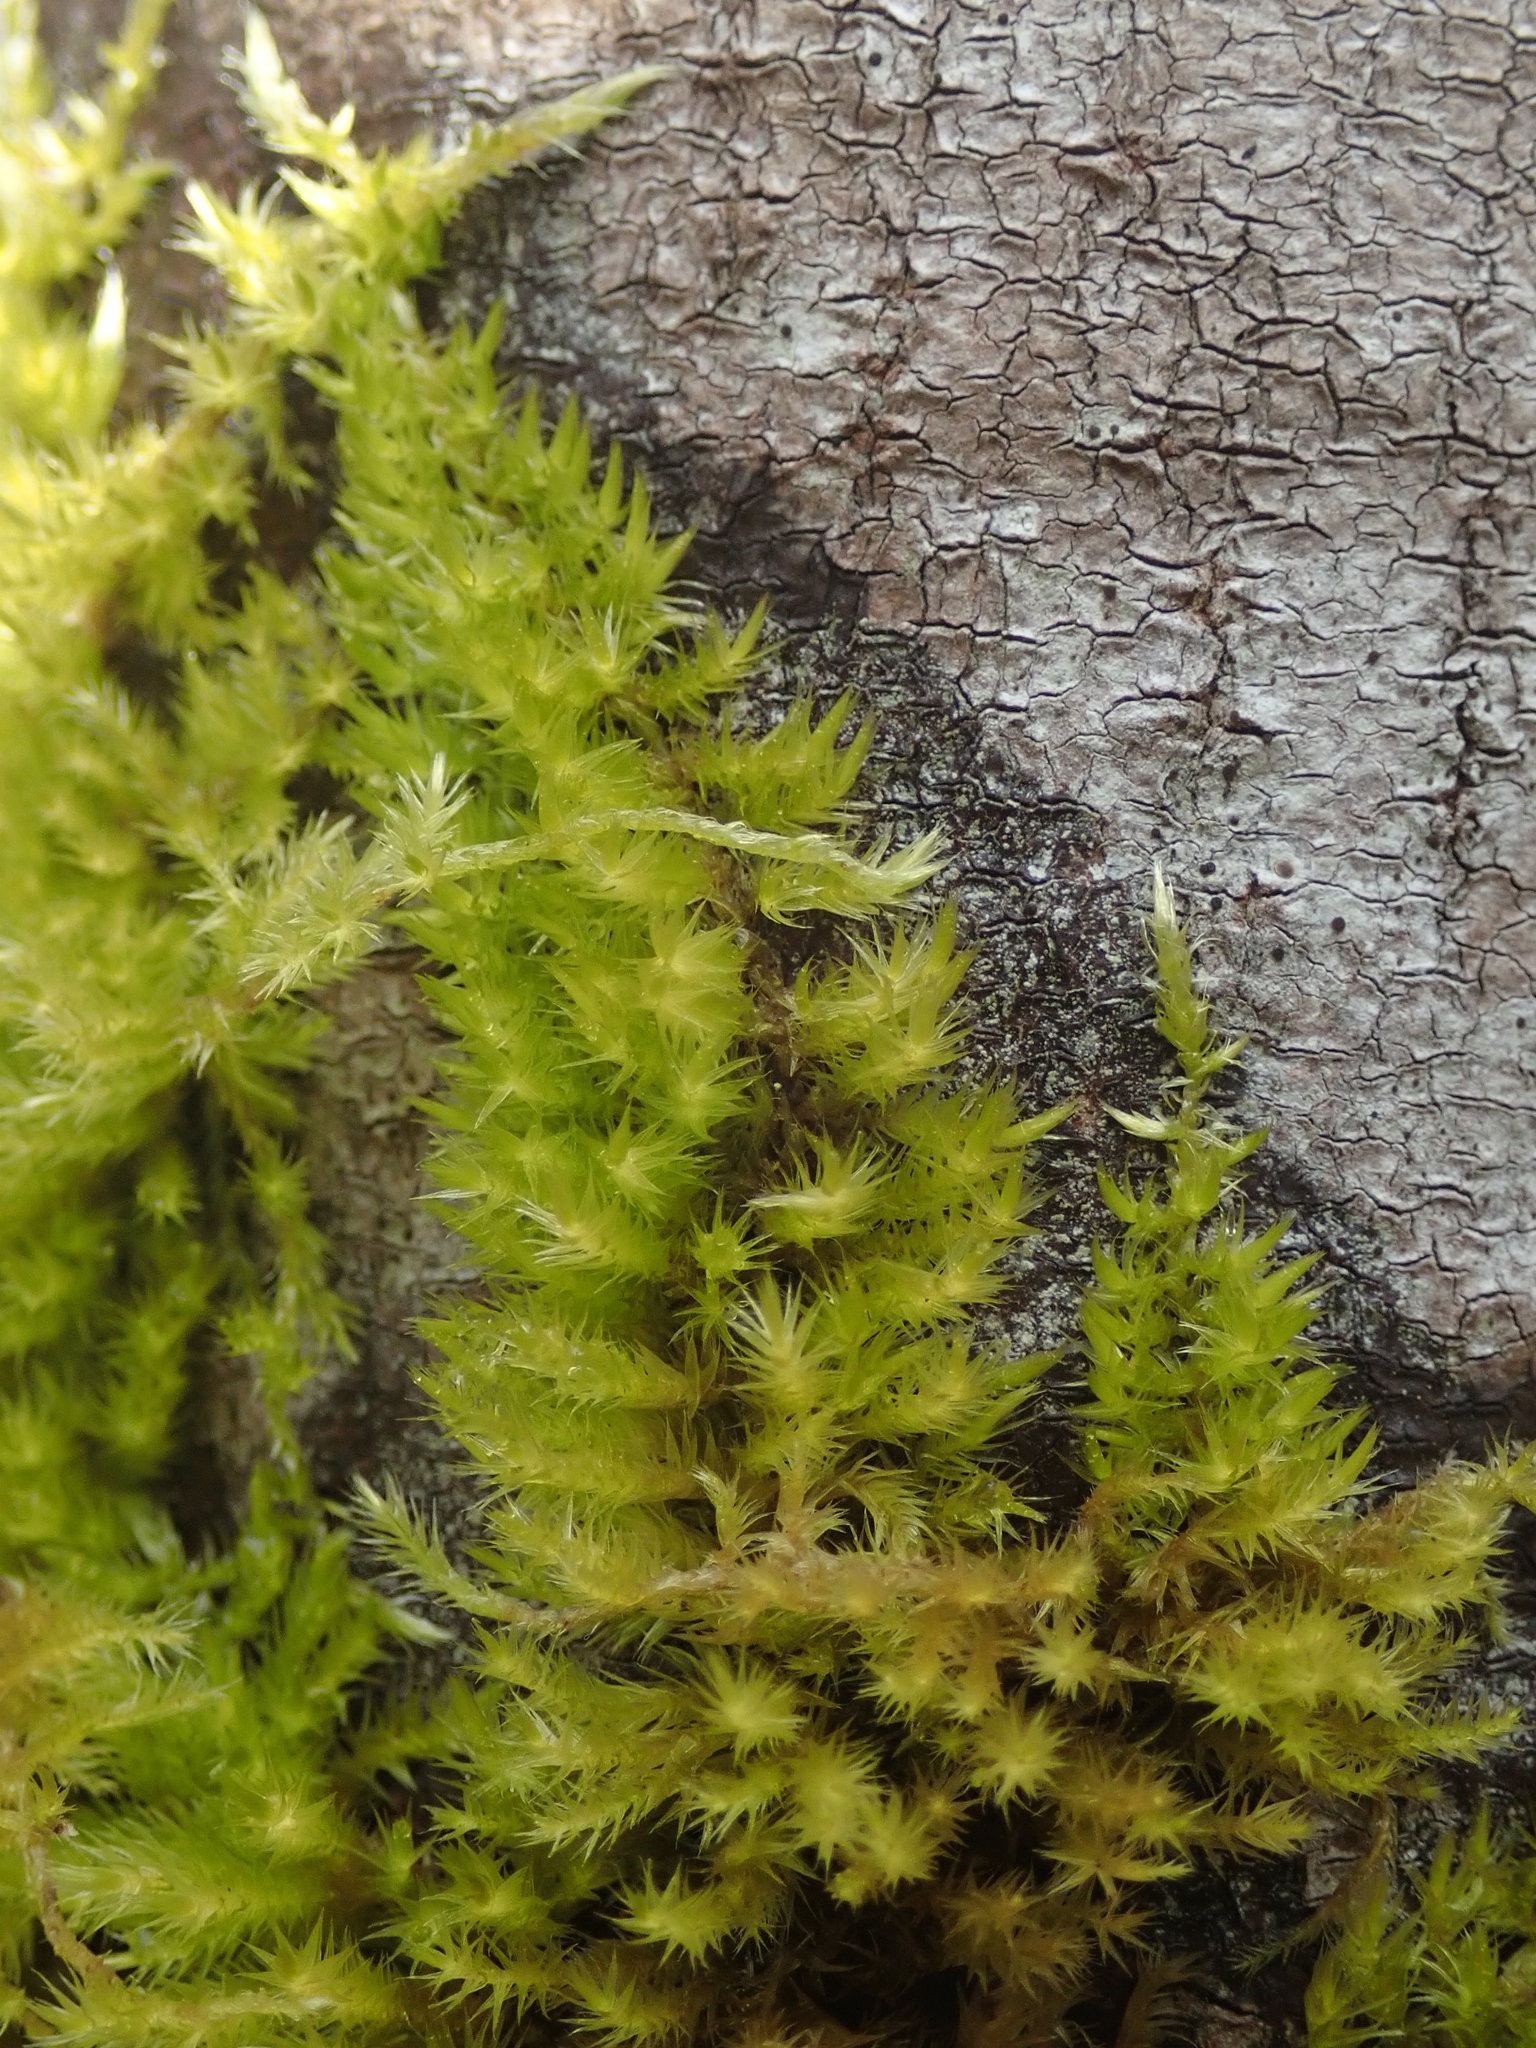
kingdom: Plantae
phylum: Bryophyta
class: Bryopsida
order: Hypnales
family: Brachytheciaceae
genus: Homalothecium
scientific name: Homalothecium fulgescens
